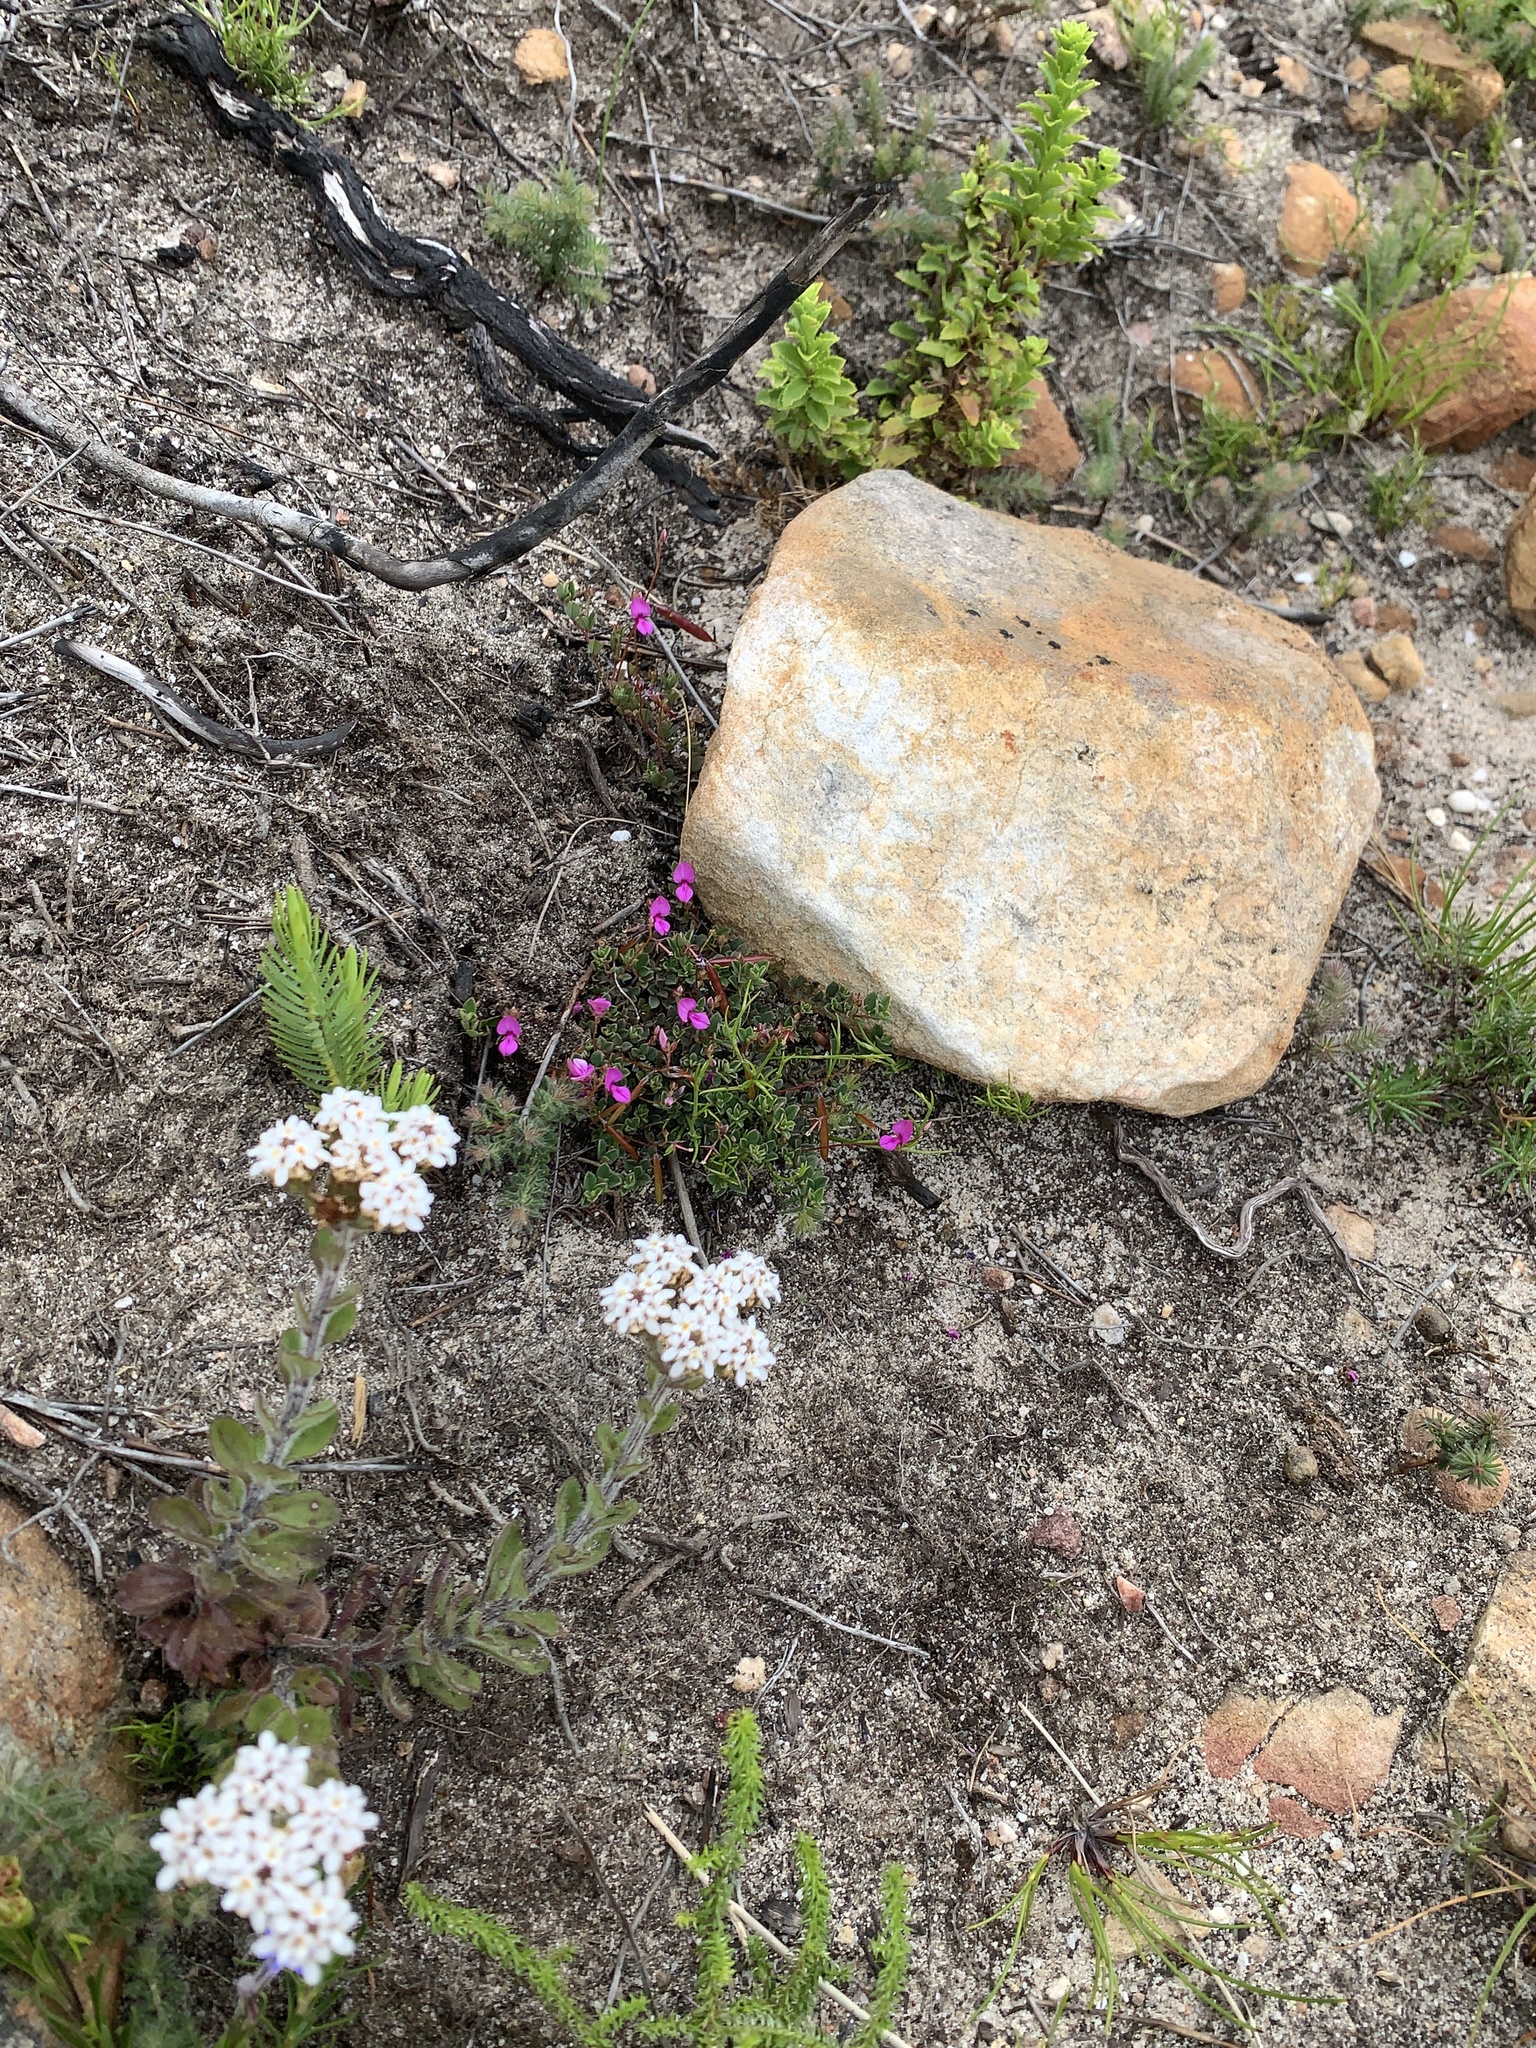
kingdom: Plantae
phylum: Tracheophyta
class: Magnoliopsida
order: Fabales
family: Fabaceae
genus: Indigofera
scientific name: Indigofera sarmentosa
